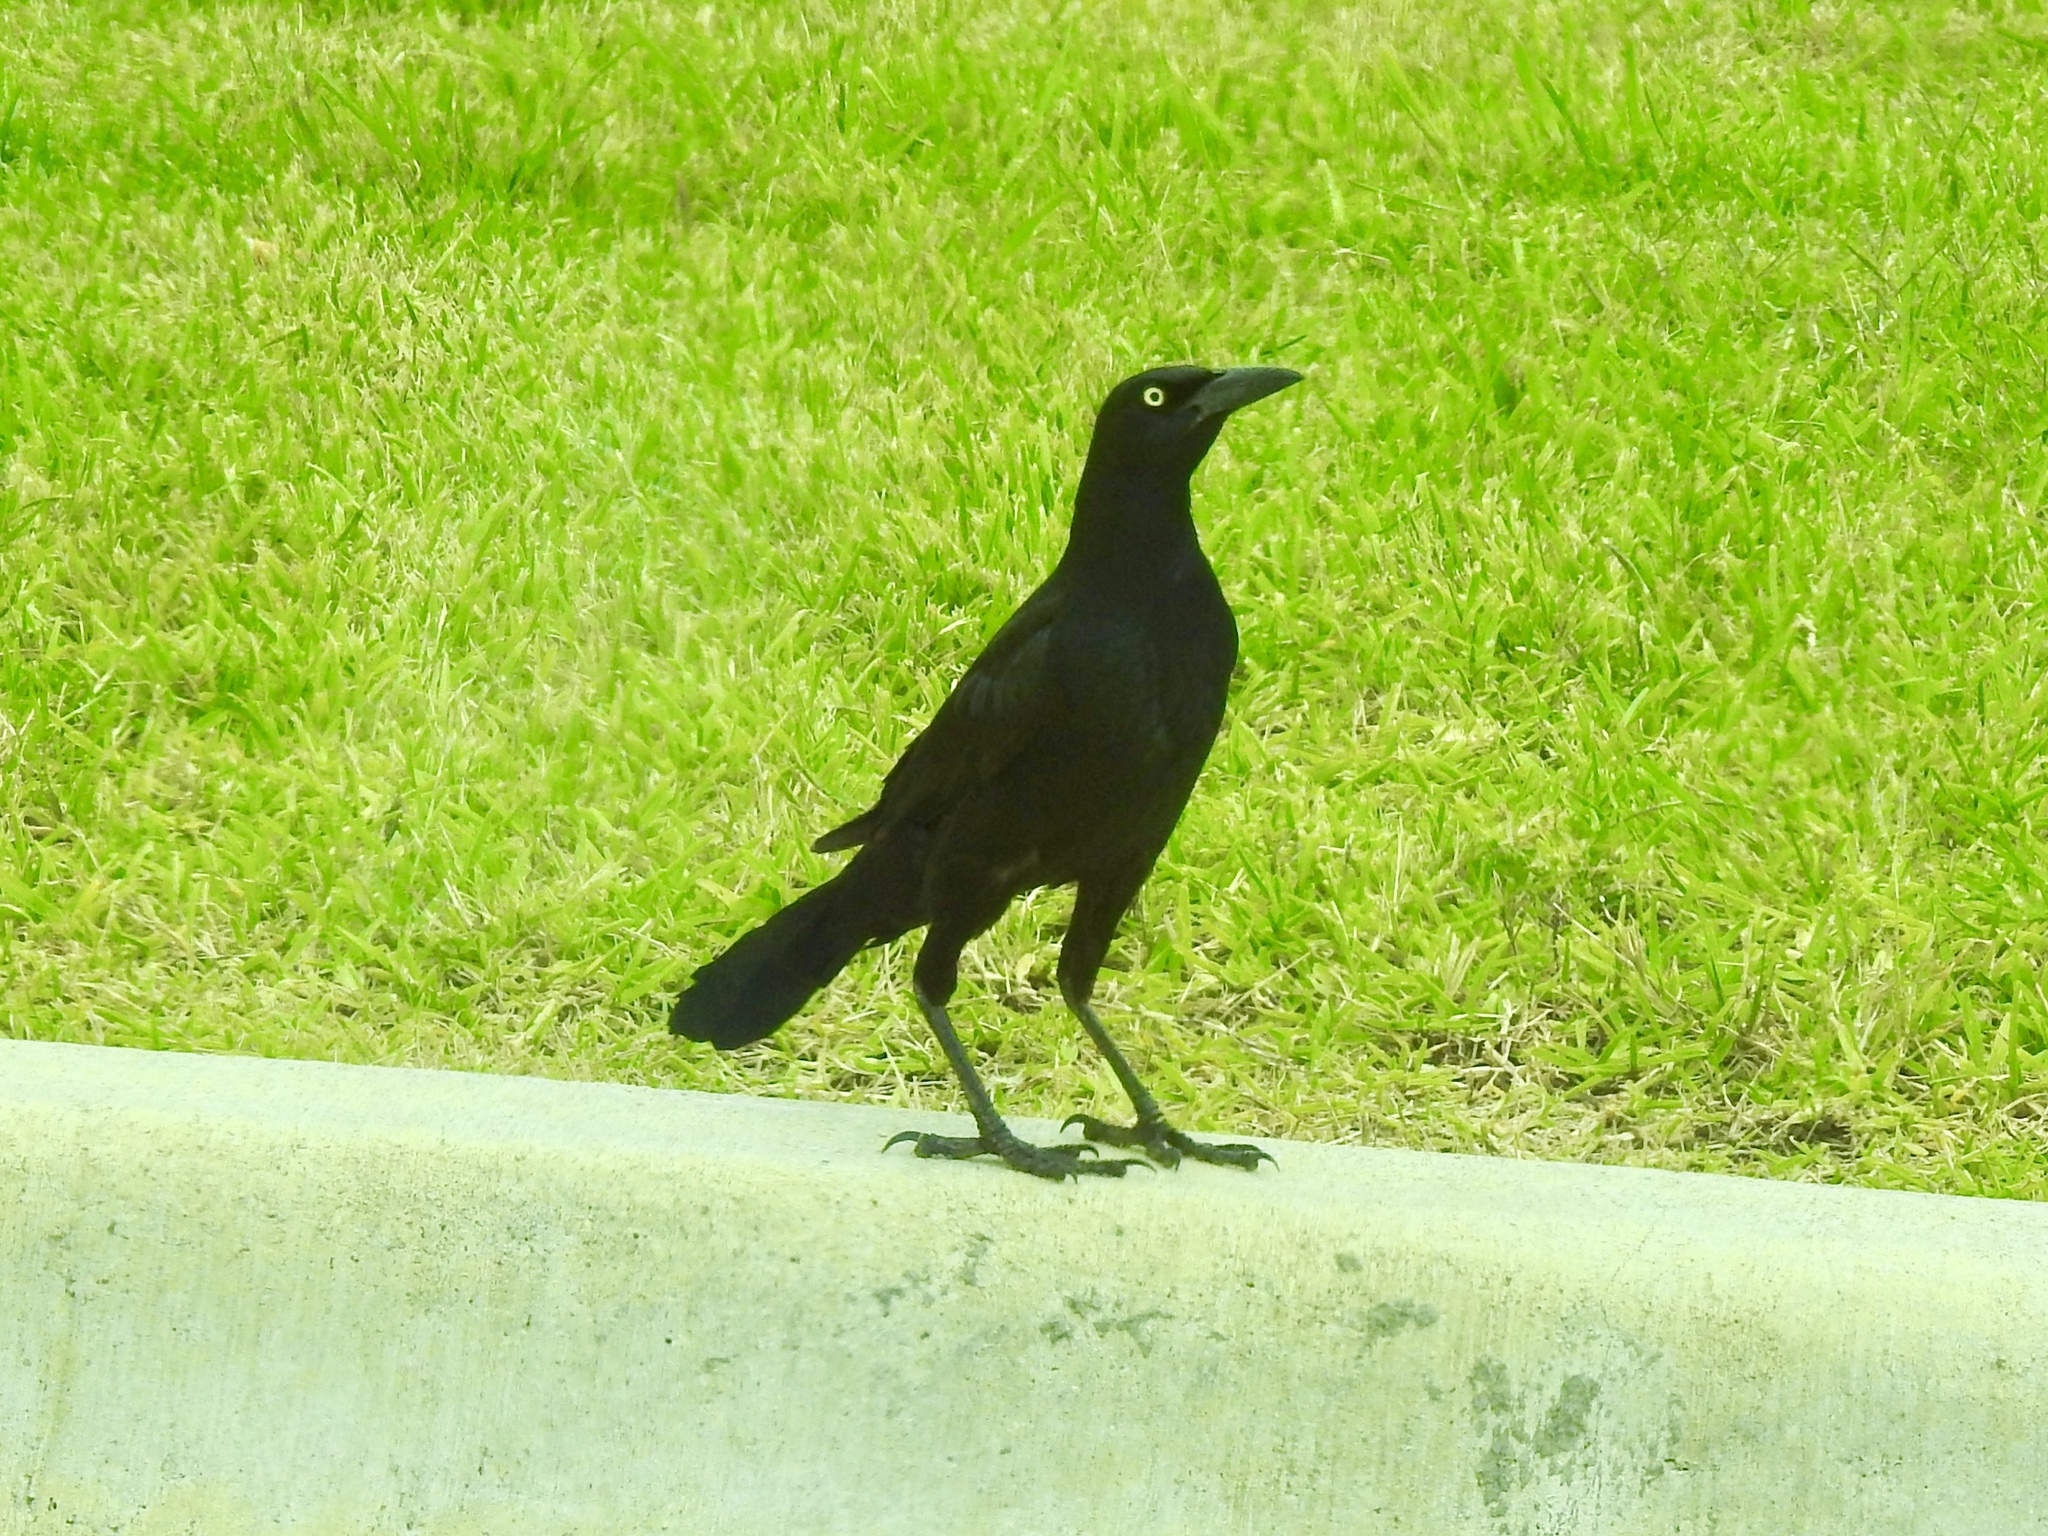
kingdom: Animalia
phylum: Chordata
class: Aves
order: Passeriformes
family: Icteridae
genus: Quiscalus
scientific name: Quiscalus mexicanus
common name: Great-tailed grackle
